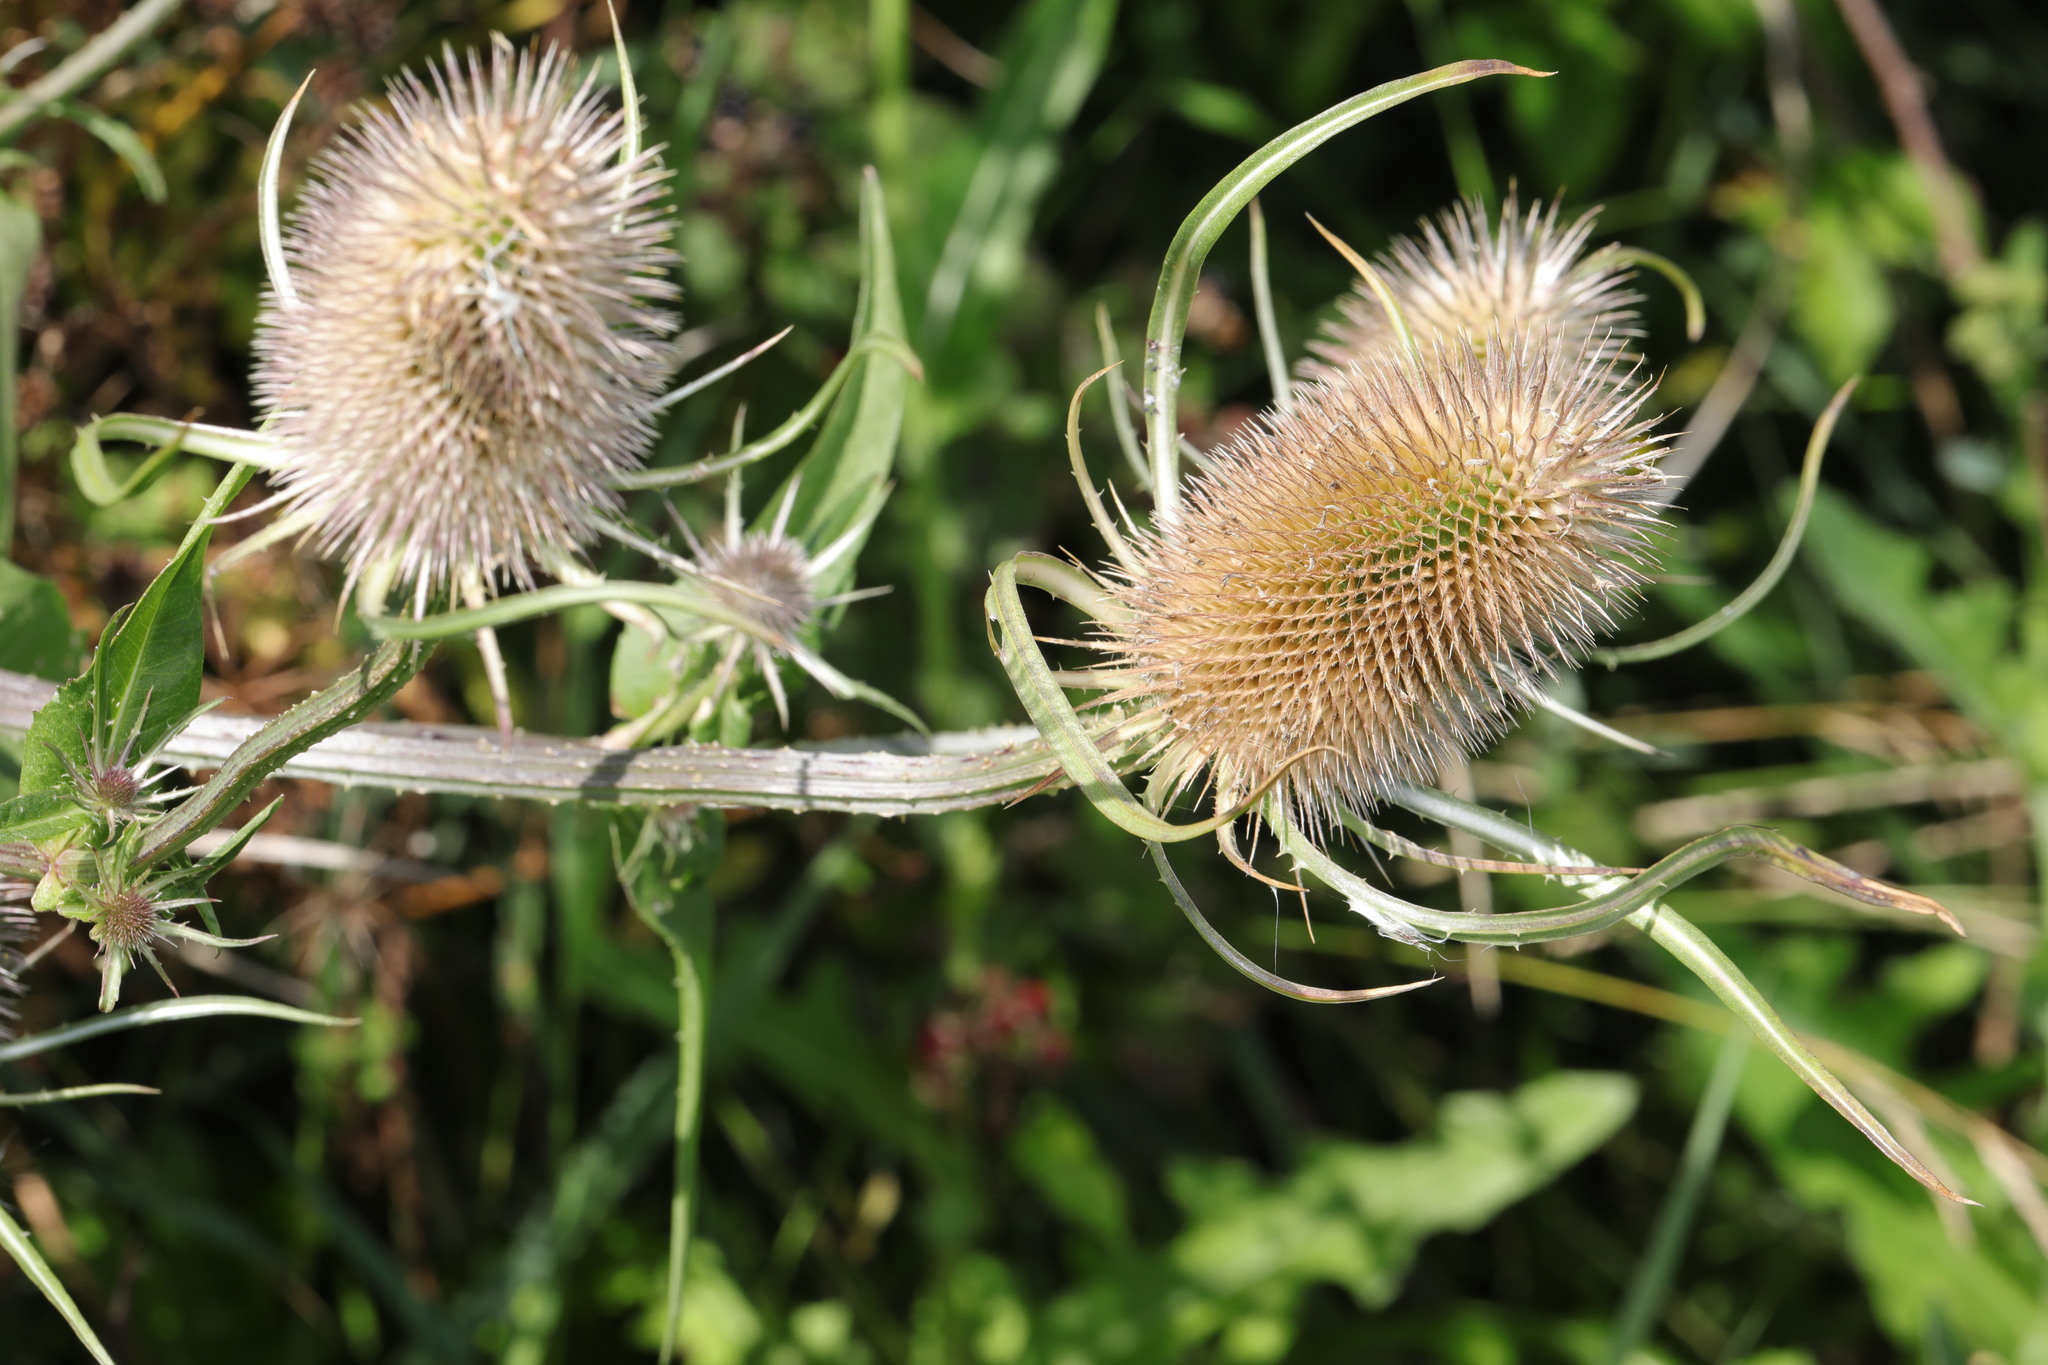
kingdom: Plantae
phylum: Tracheophyta
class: Magnoliopsida
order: Dipsacales
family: Caprifoliaceae
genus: Dipsacus
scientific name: Dipsacus fullonum
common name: Teasel
